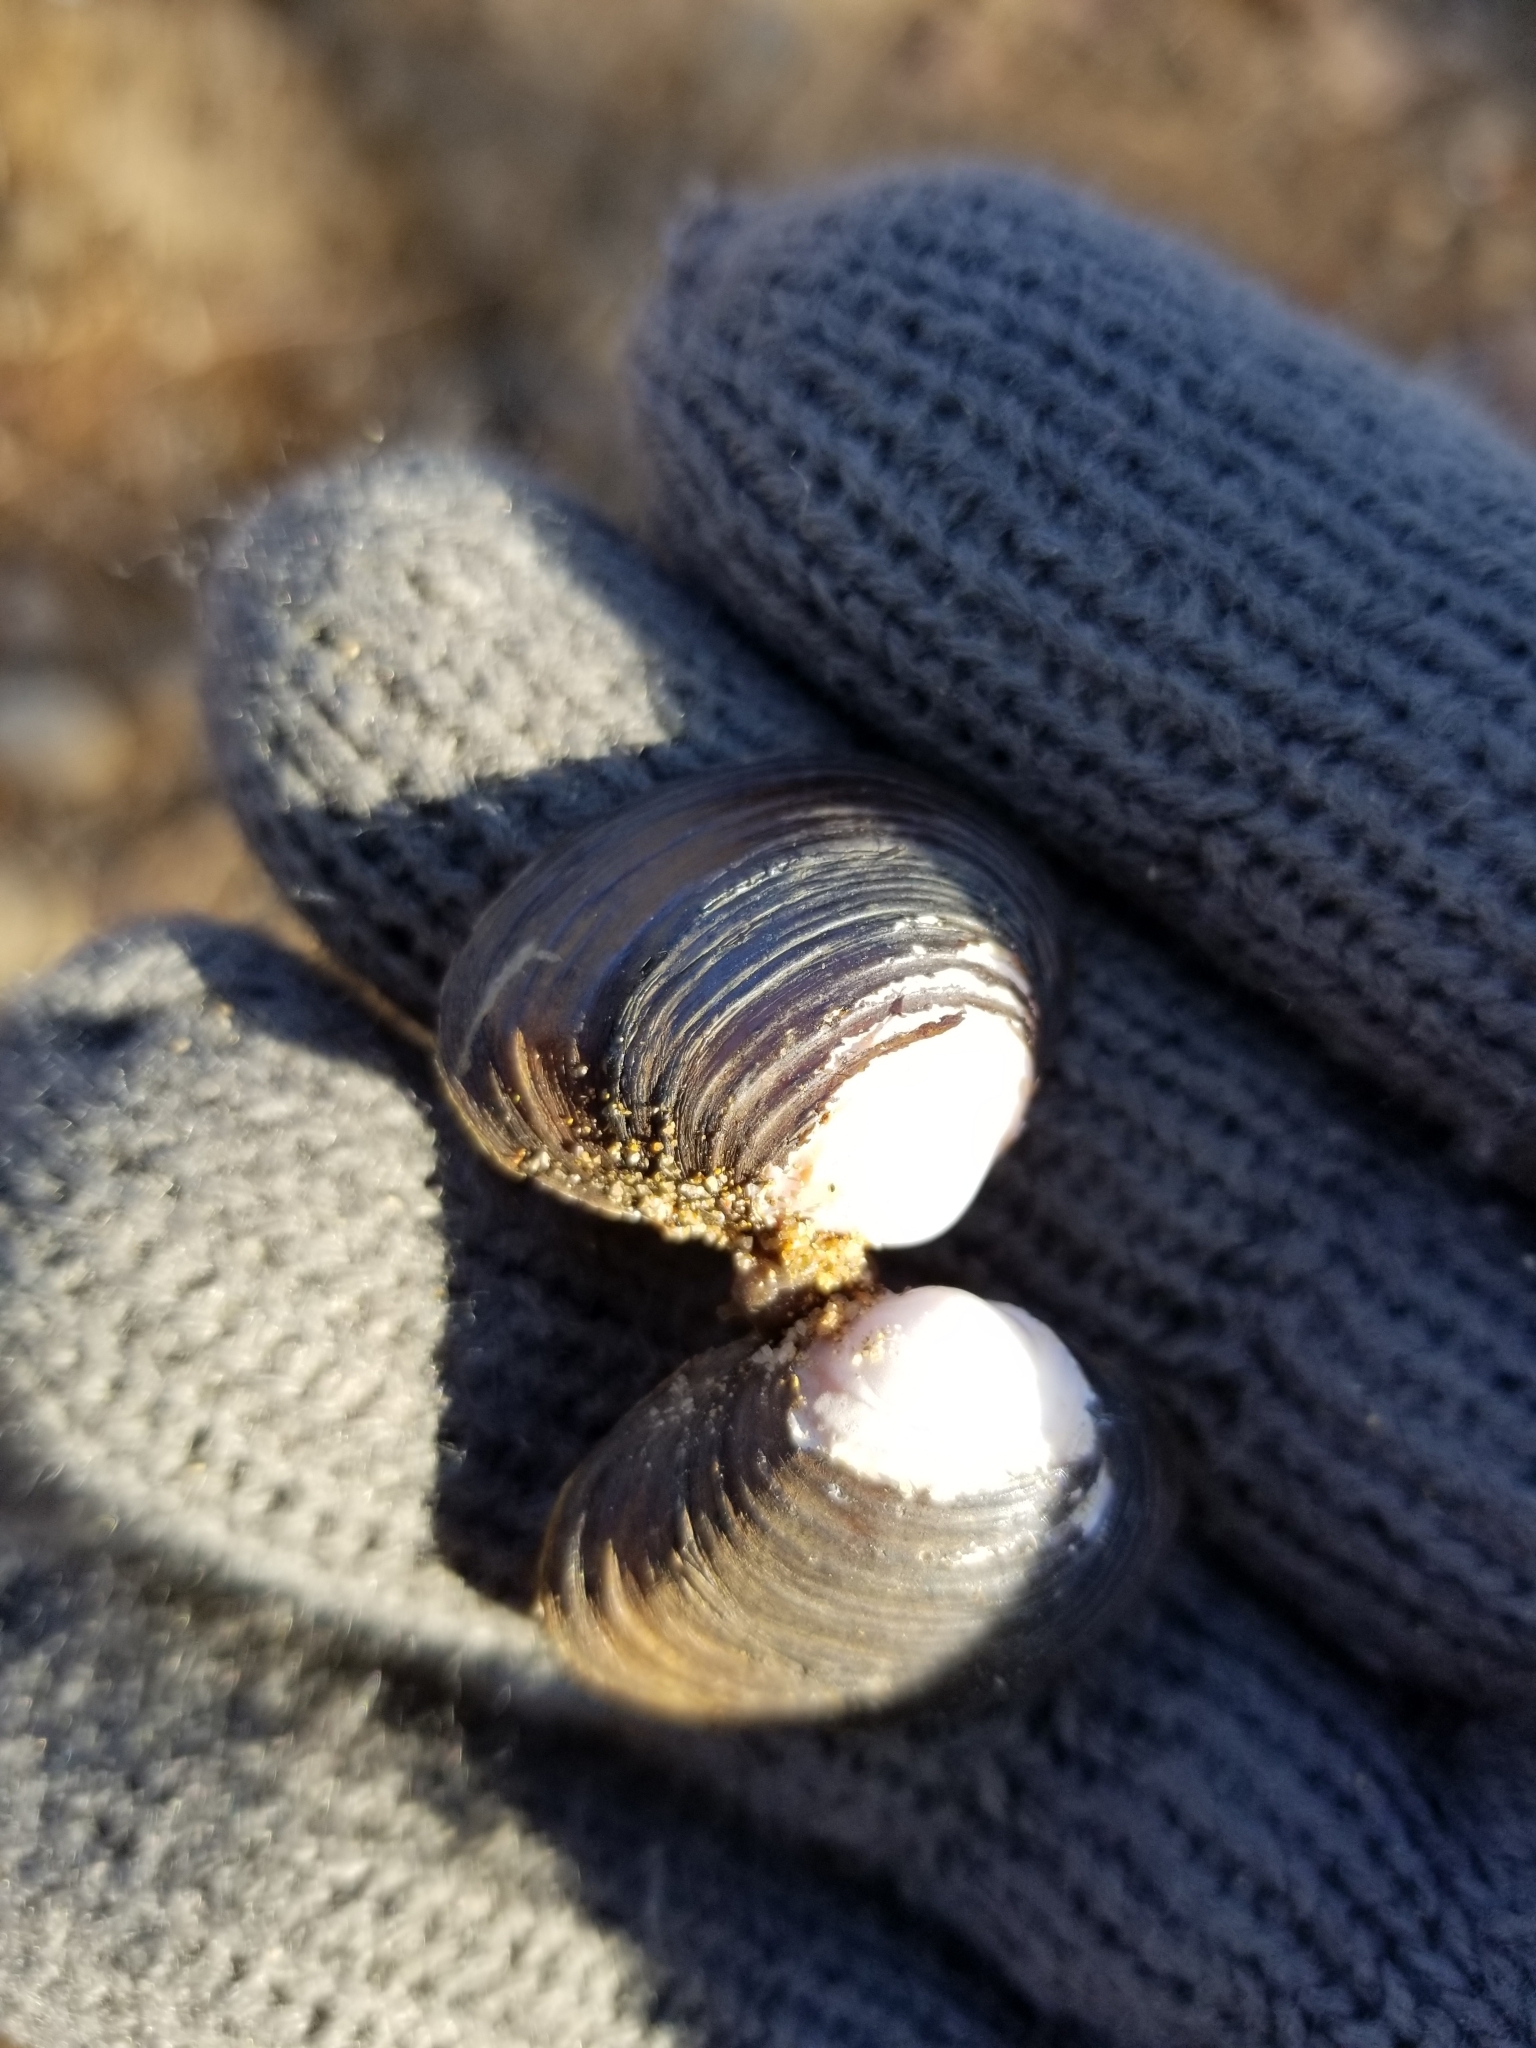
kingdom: Animalia
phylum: Mollusca
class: Bivalvia
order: Venerida
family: Cyrenidae
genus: Corbicula
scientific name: Corbicula fluminea
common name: Asian clam
